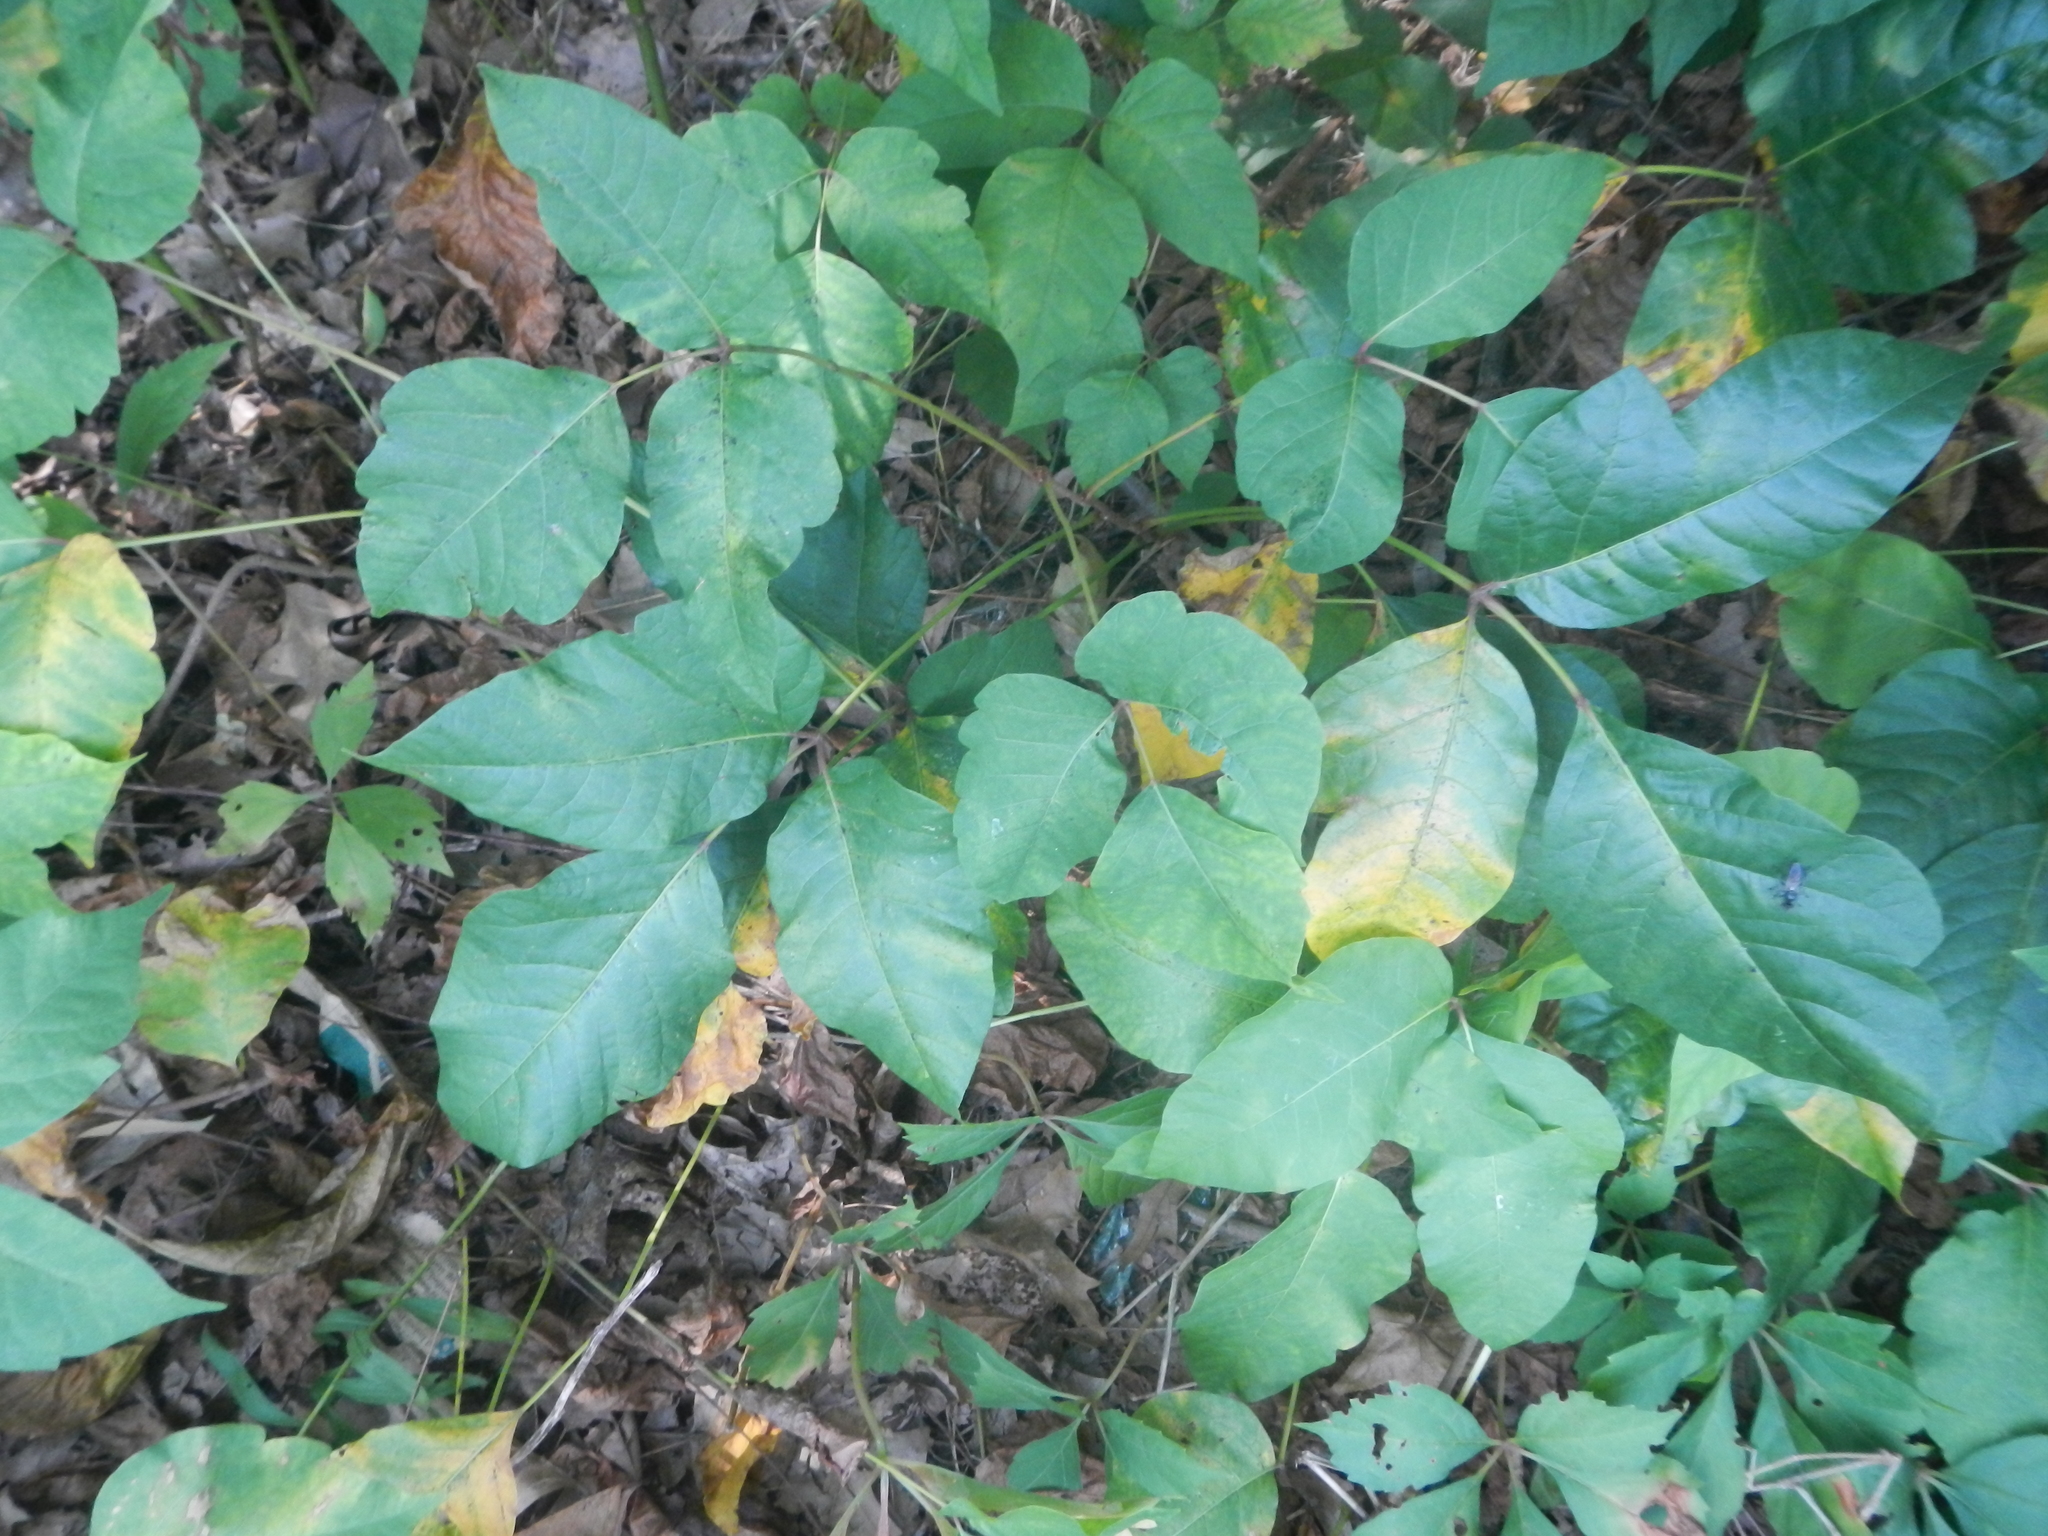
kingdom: Plantae
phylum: Tracheophyta
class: Magnoliopsida
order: Sapindales
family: Anacardiaceae
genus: Toxicodendron
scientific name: Toxicodendron radicans
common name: Poison ivy
